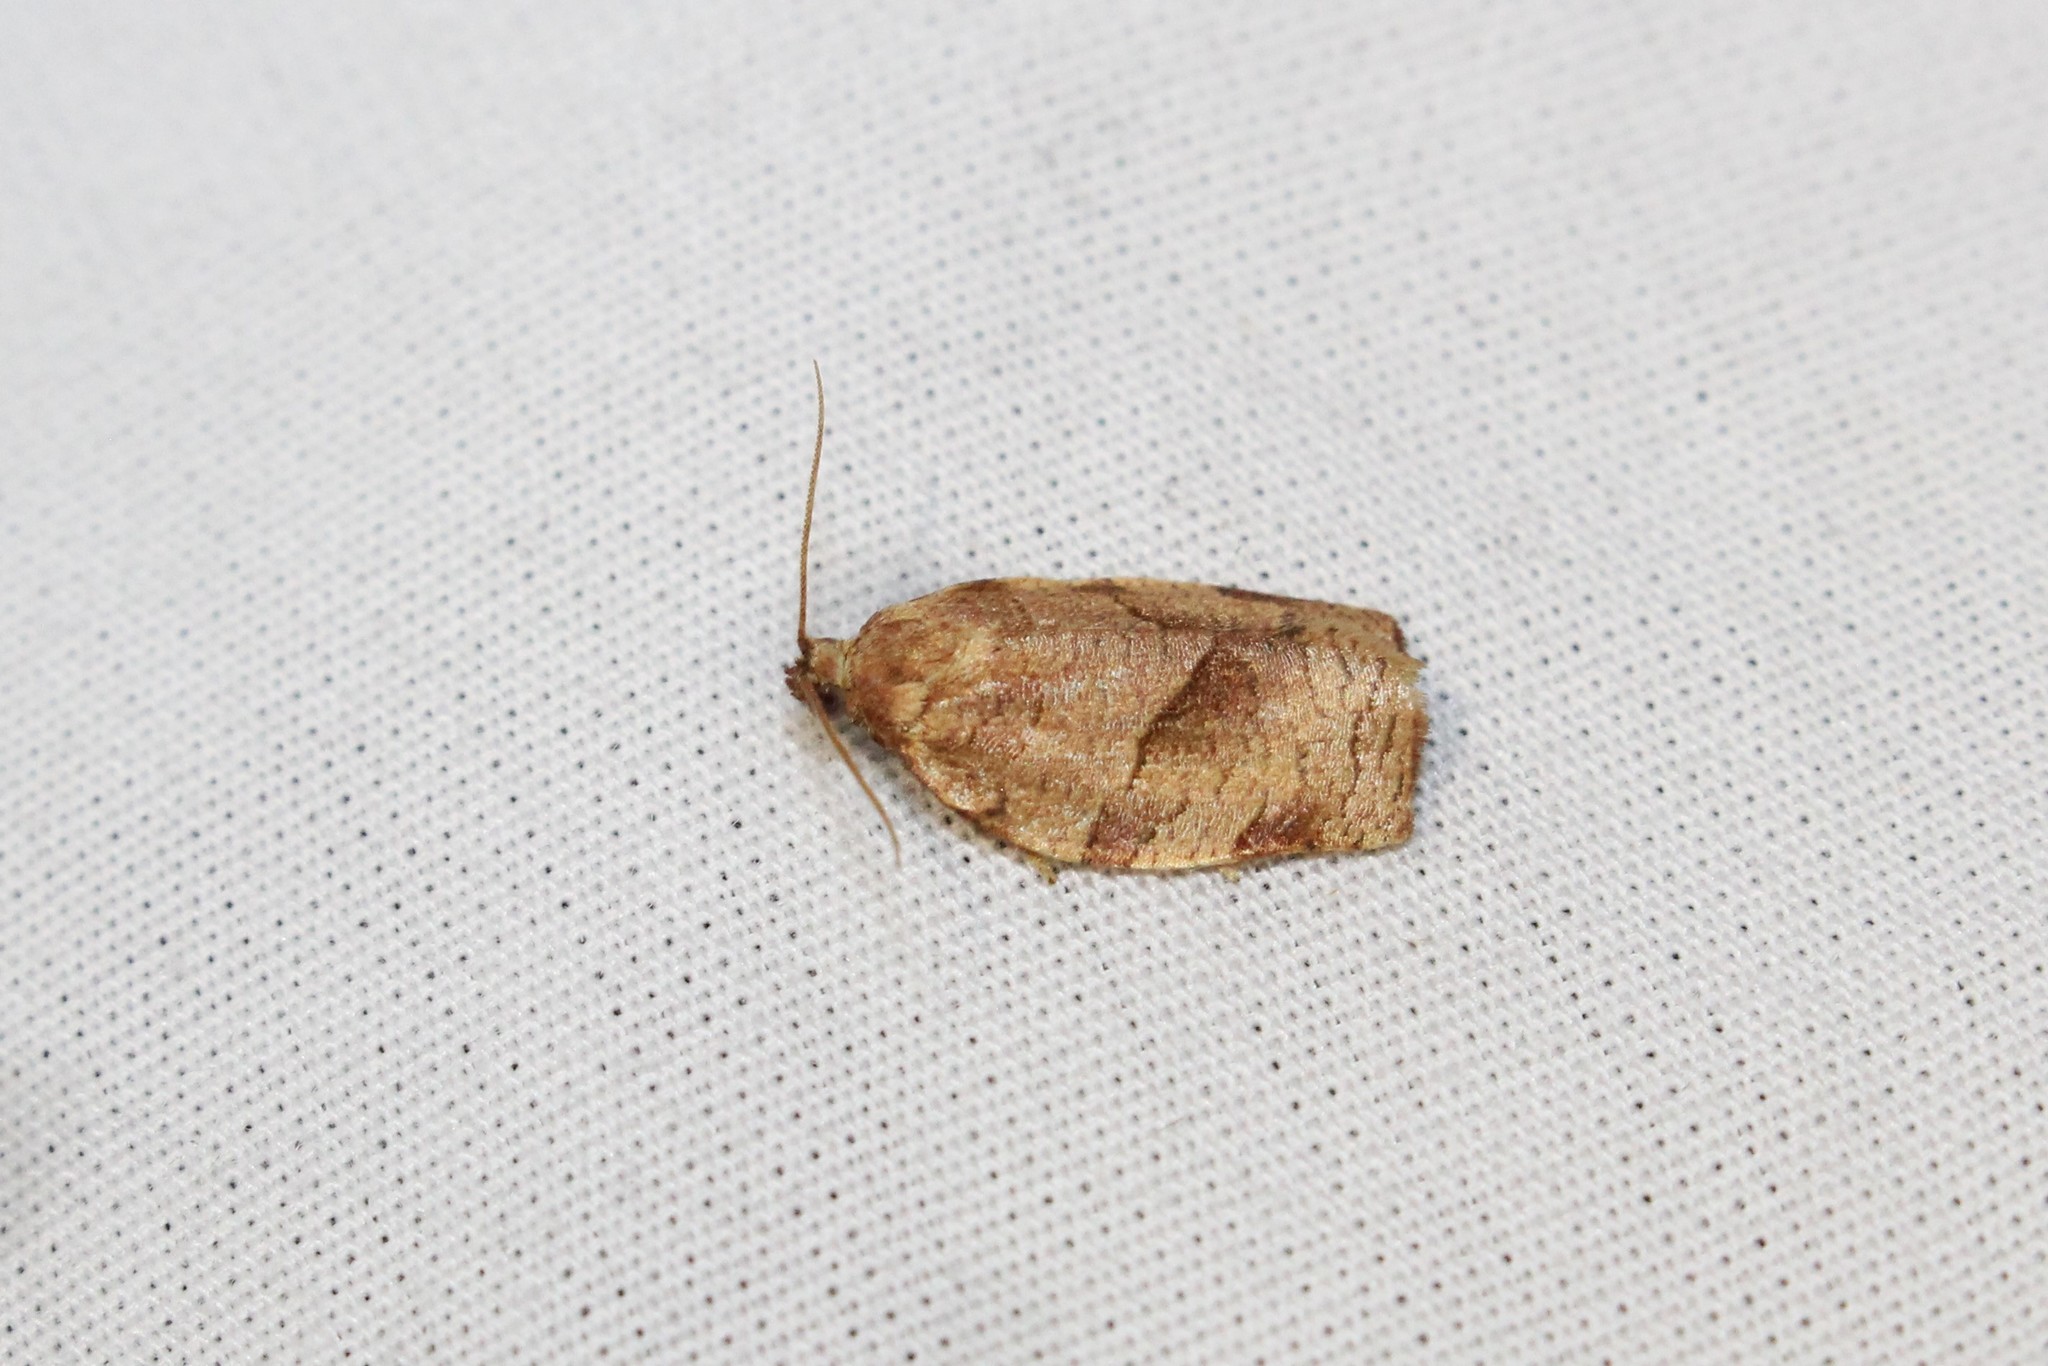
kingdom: Animalia
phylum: Arthropoda
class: Insecta
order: Lepidoptera
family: Tortricidae
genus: Choristoneura
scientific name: Choristoneura rosaceana
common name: Oblique-banded leafroller moth
